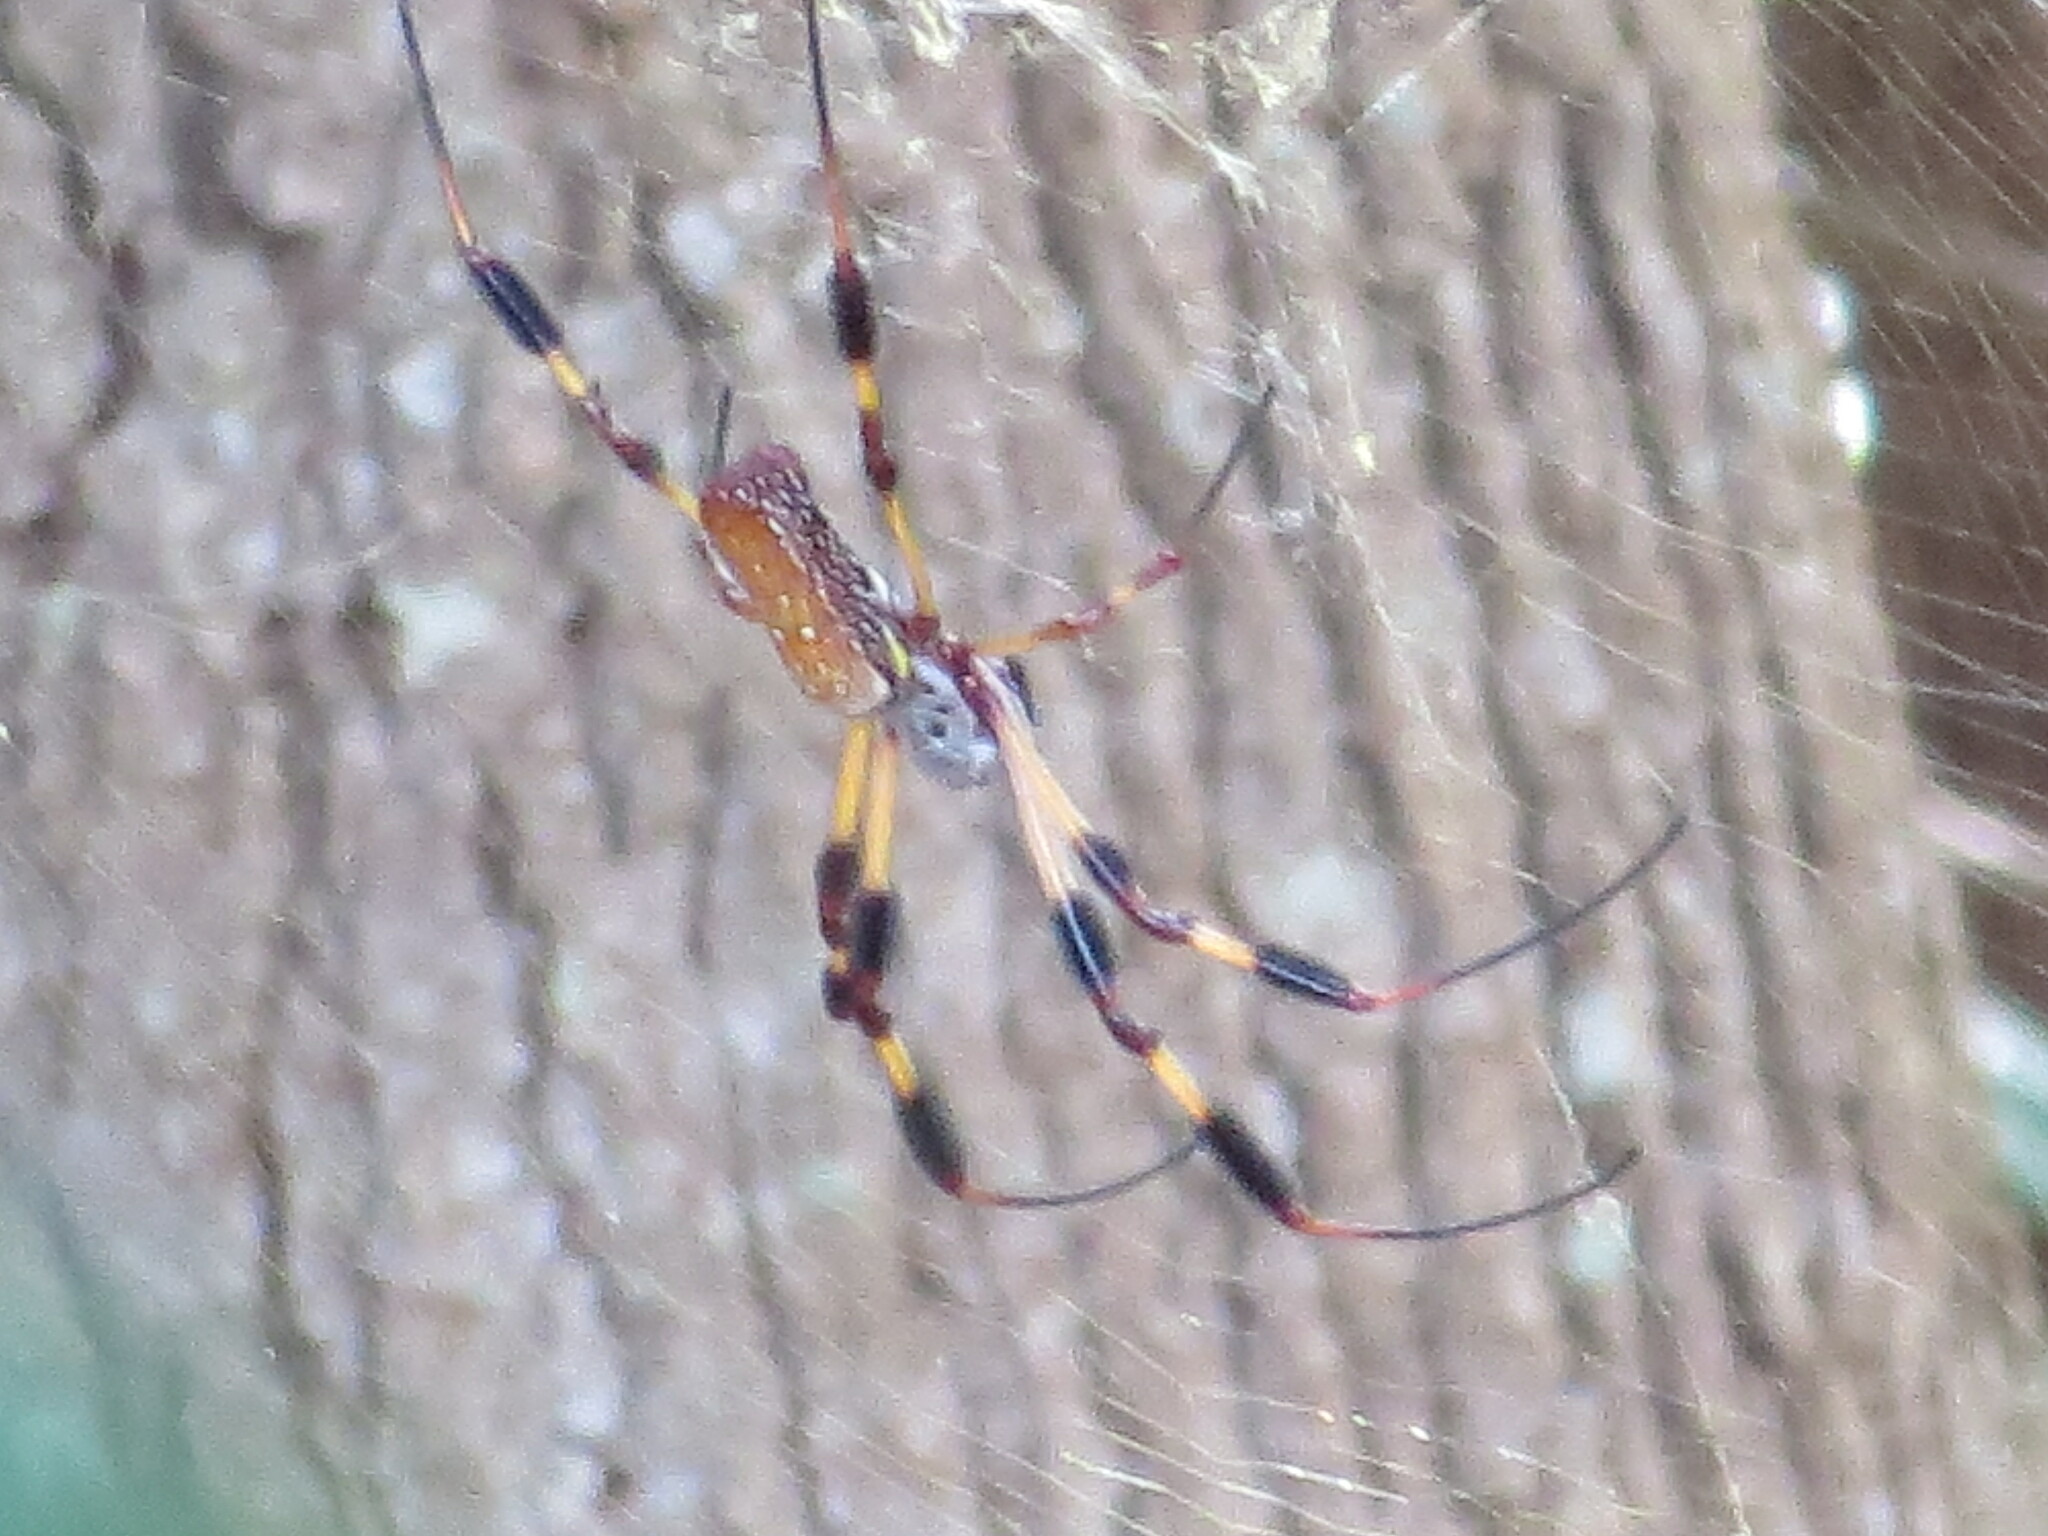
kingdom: Animalia
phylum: Arthropoda
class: Arachnida
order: Araneae
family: Araneidae
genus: Trichonephila
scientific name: Trichonephila clavipes
